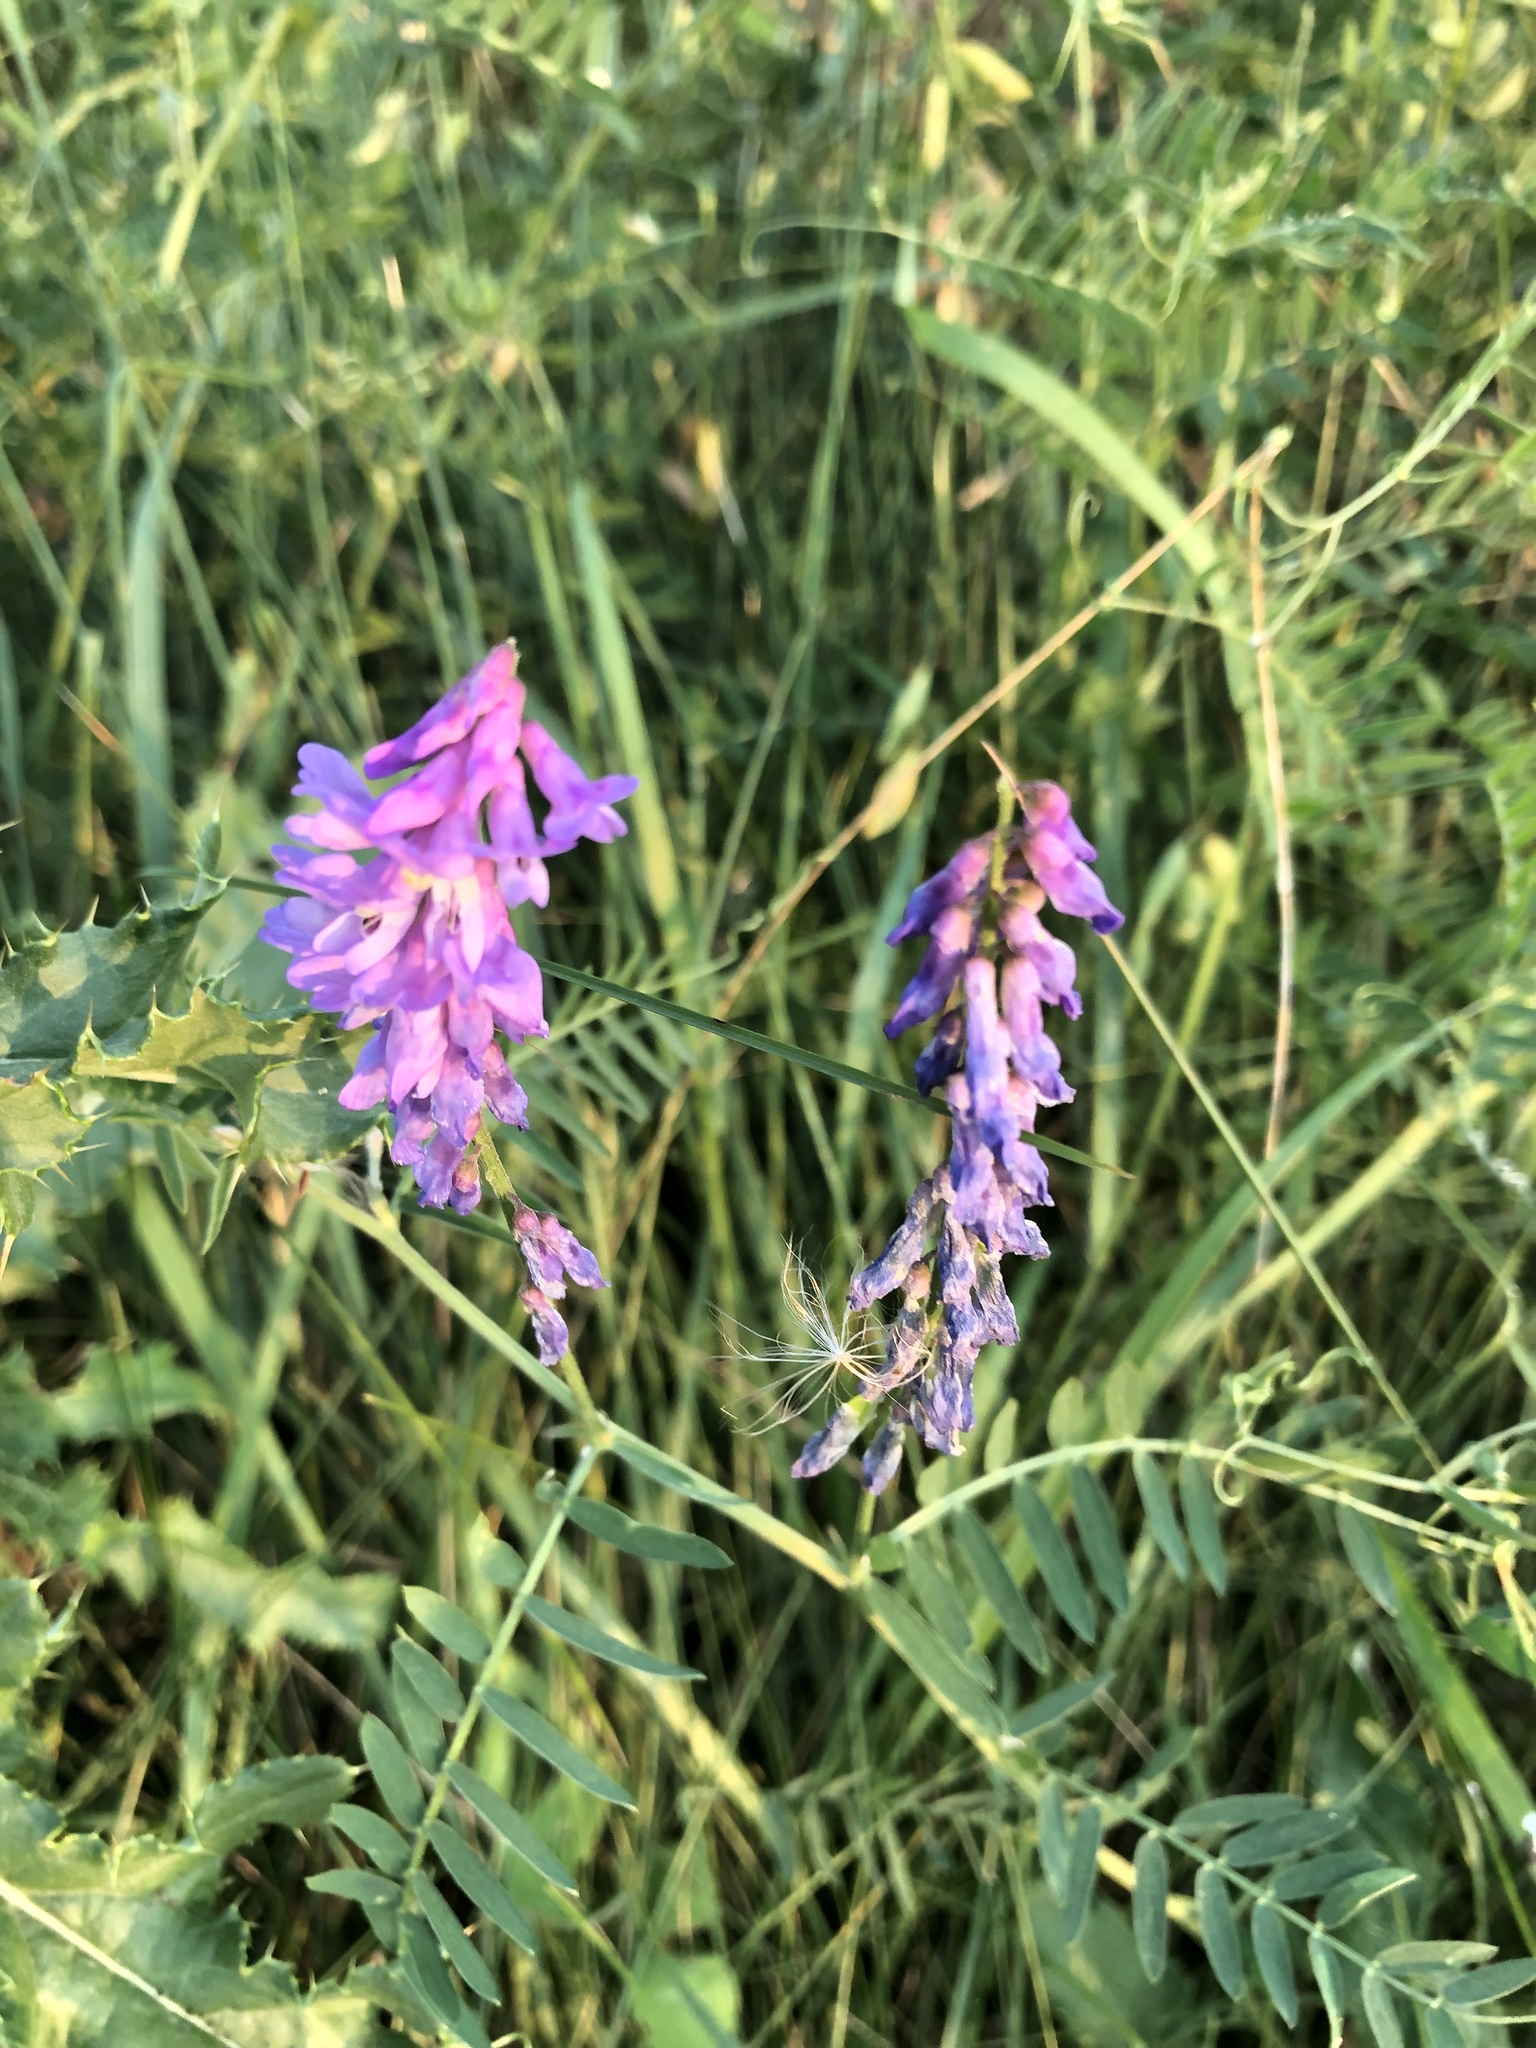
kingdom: Plantae
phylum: Tracheophyta
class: Magnoliopsida
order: Fabales
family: Fabaceae
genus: Vicia
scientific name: Vicia cracca
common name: Bird vetch
